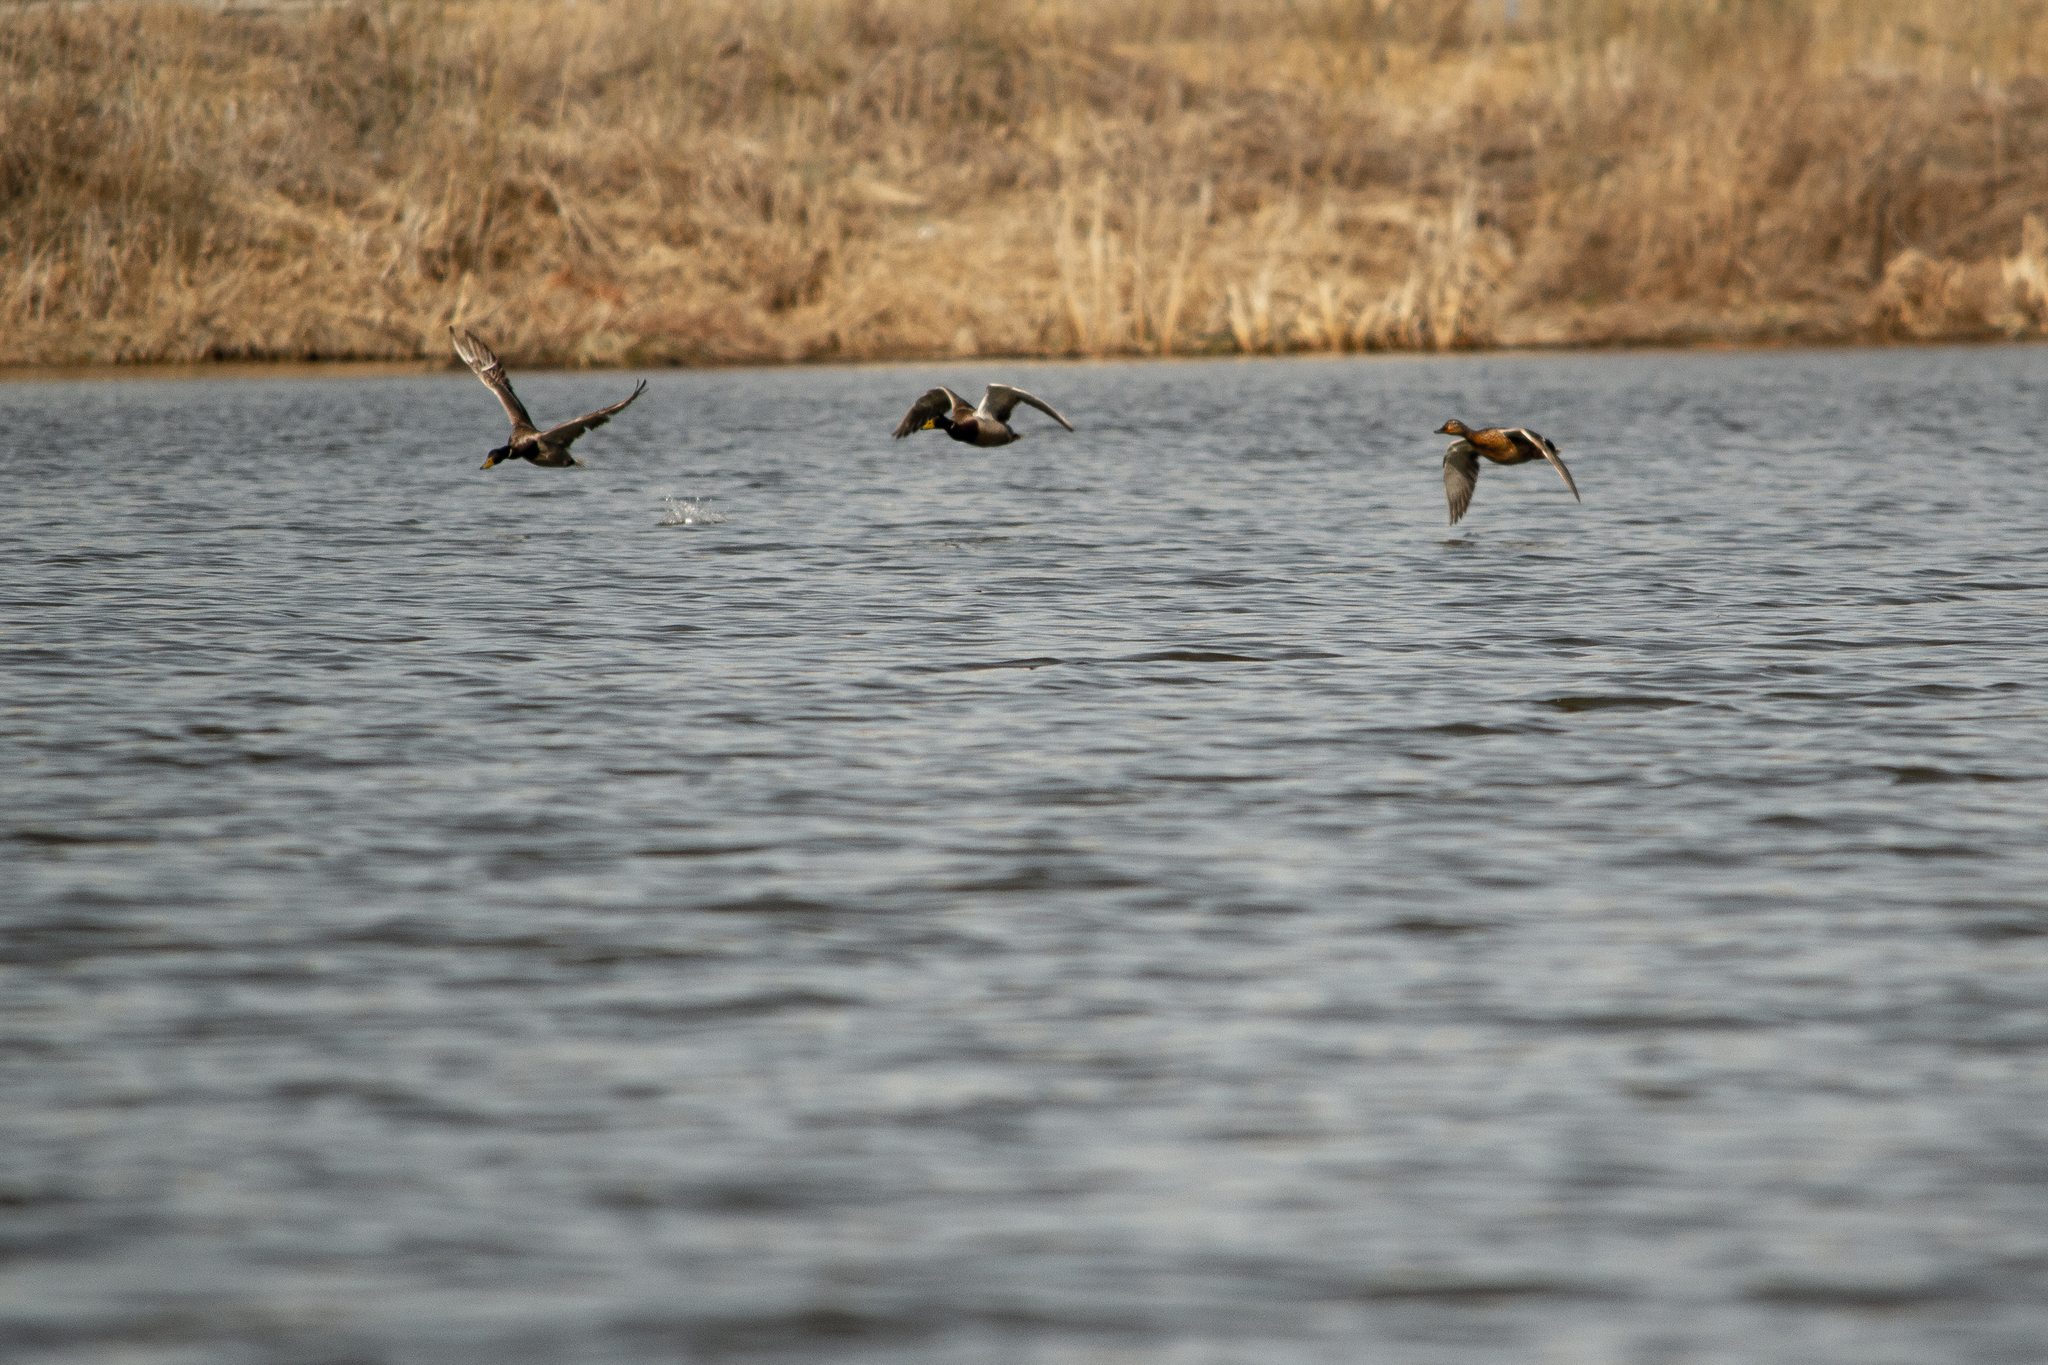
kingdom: Animalia
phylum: Chordata
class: Aves
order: Anseriformes
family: Anatidae
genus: Anas
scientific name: Anas platyrhynchos
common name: Mallard
